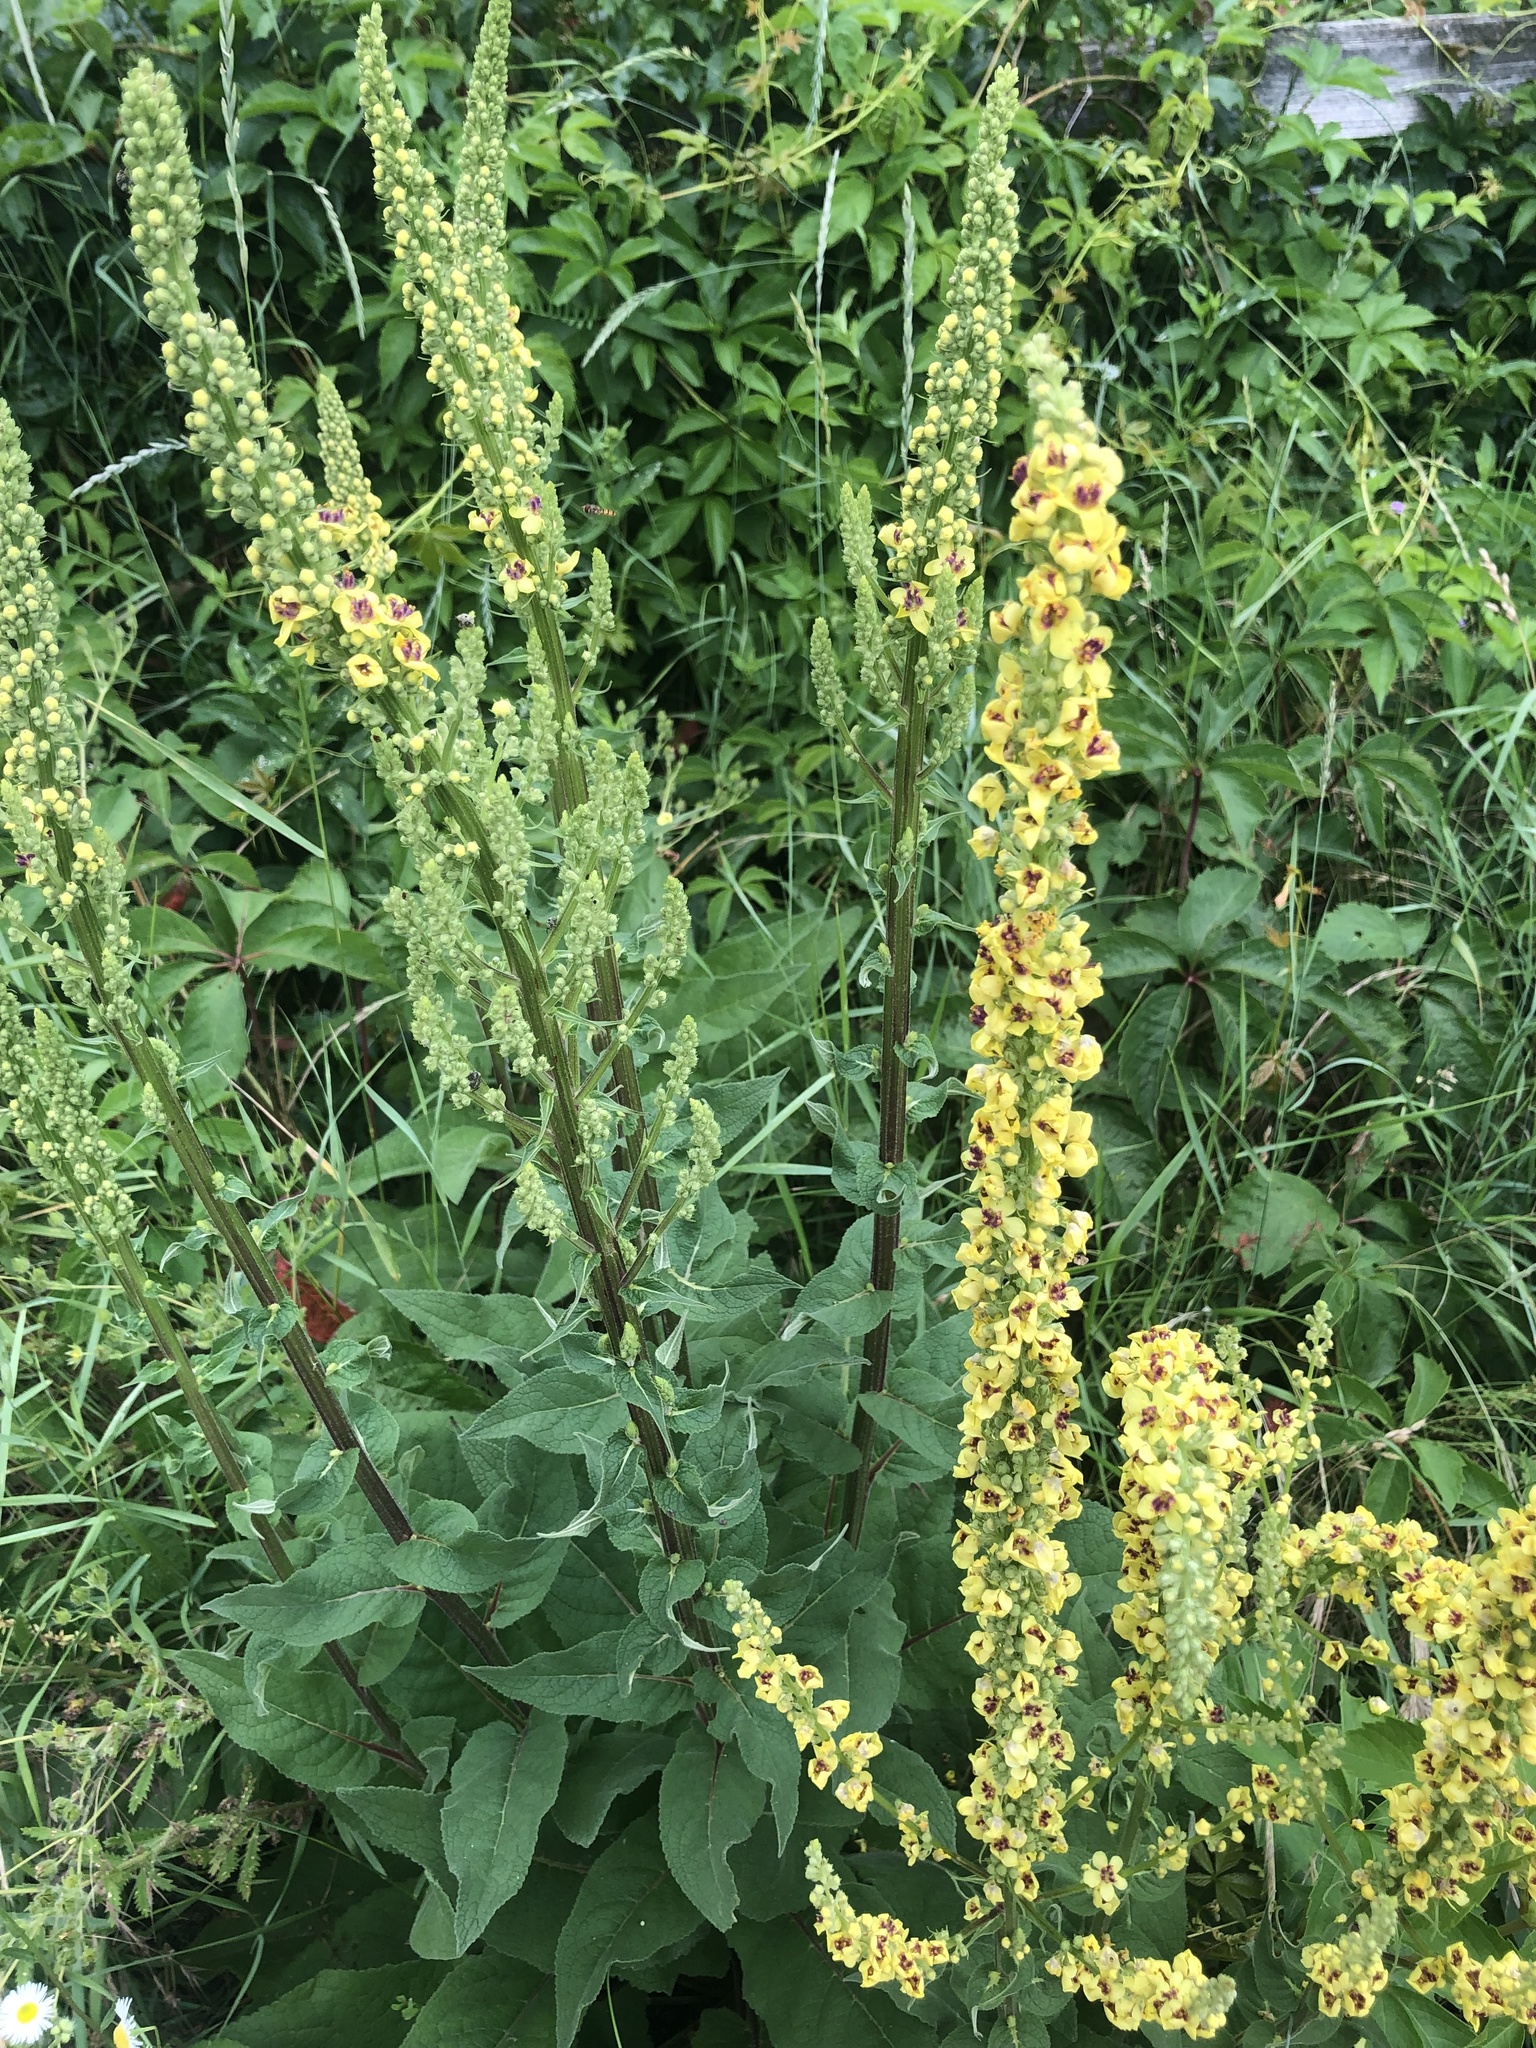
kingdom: Plantae
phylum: Tracheophyta
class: Magnoliopsida
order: Lamiales
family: Scrophulariaceae
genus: Verbascum
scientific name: Verbascum nigrum
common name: Dark mullein
